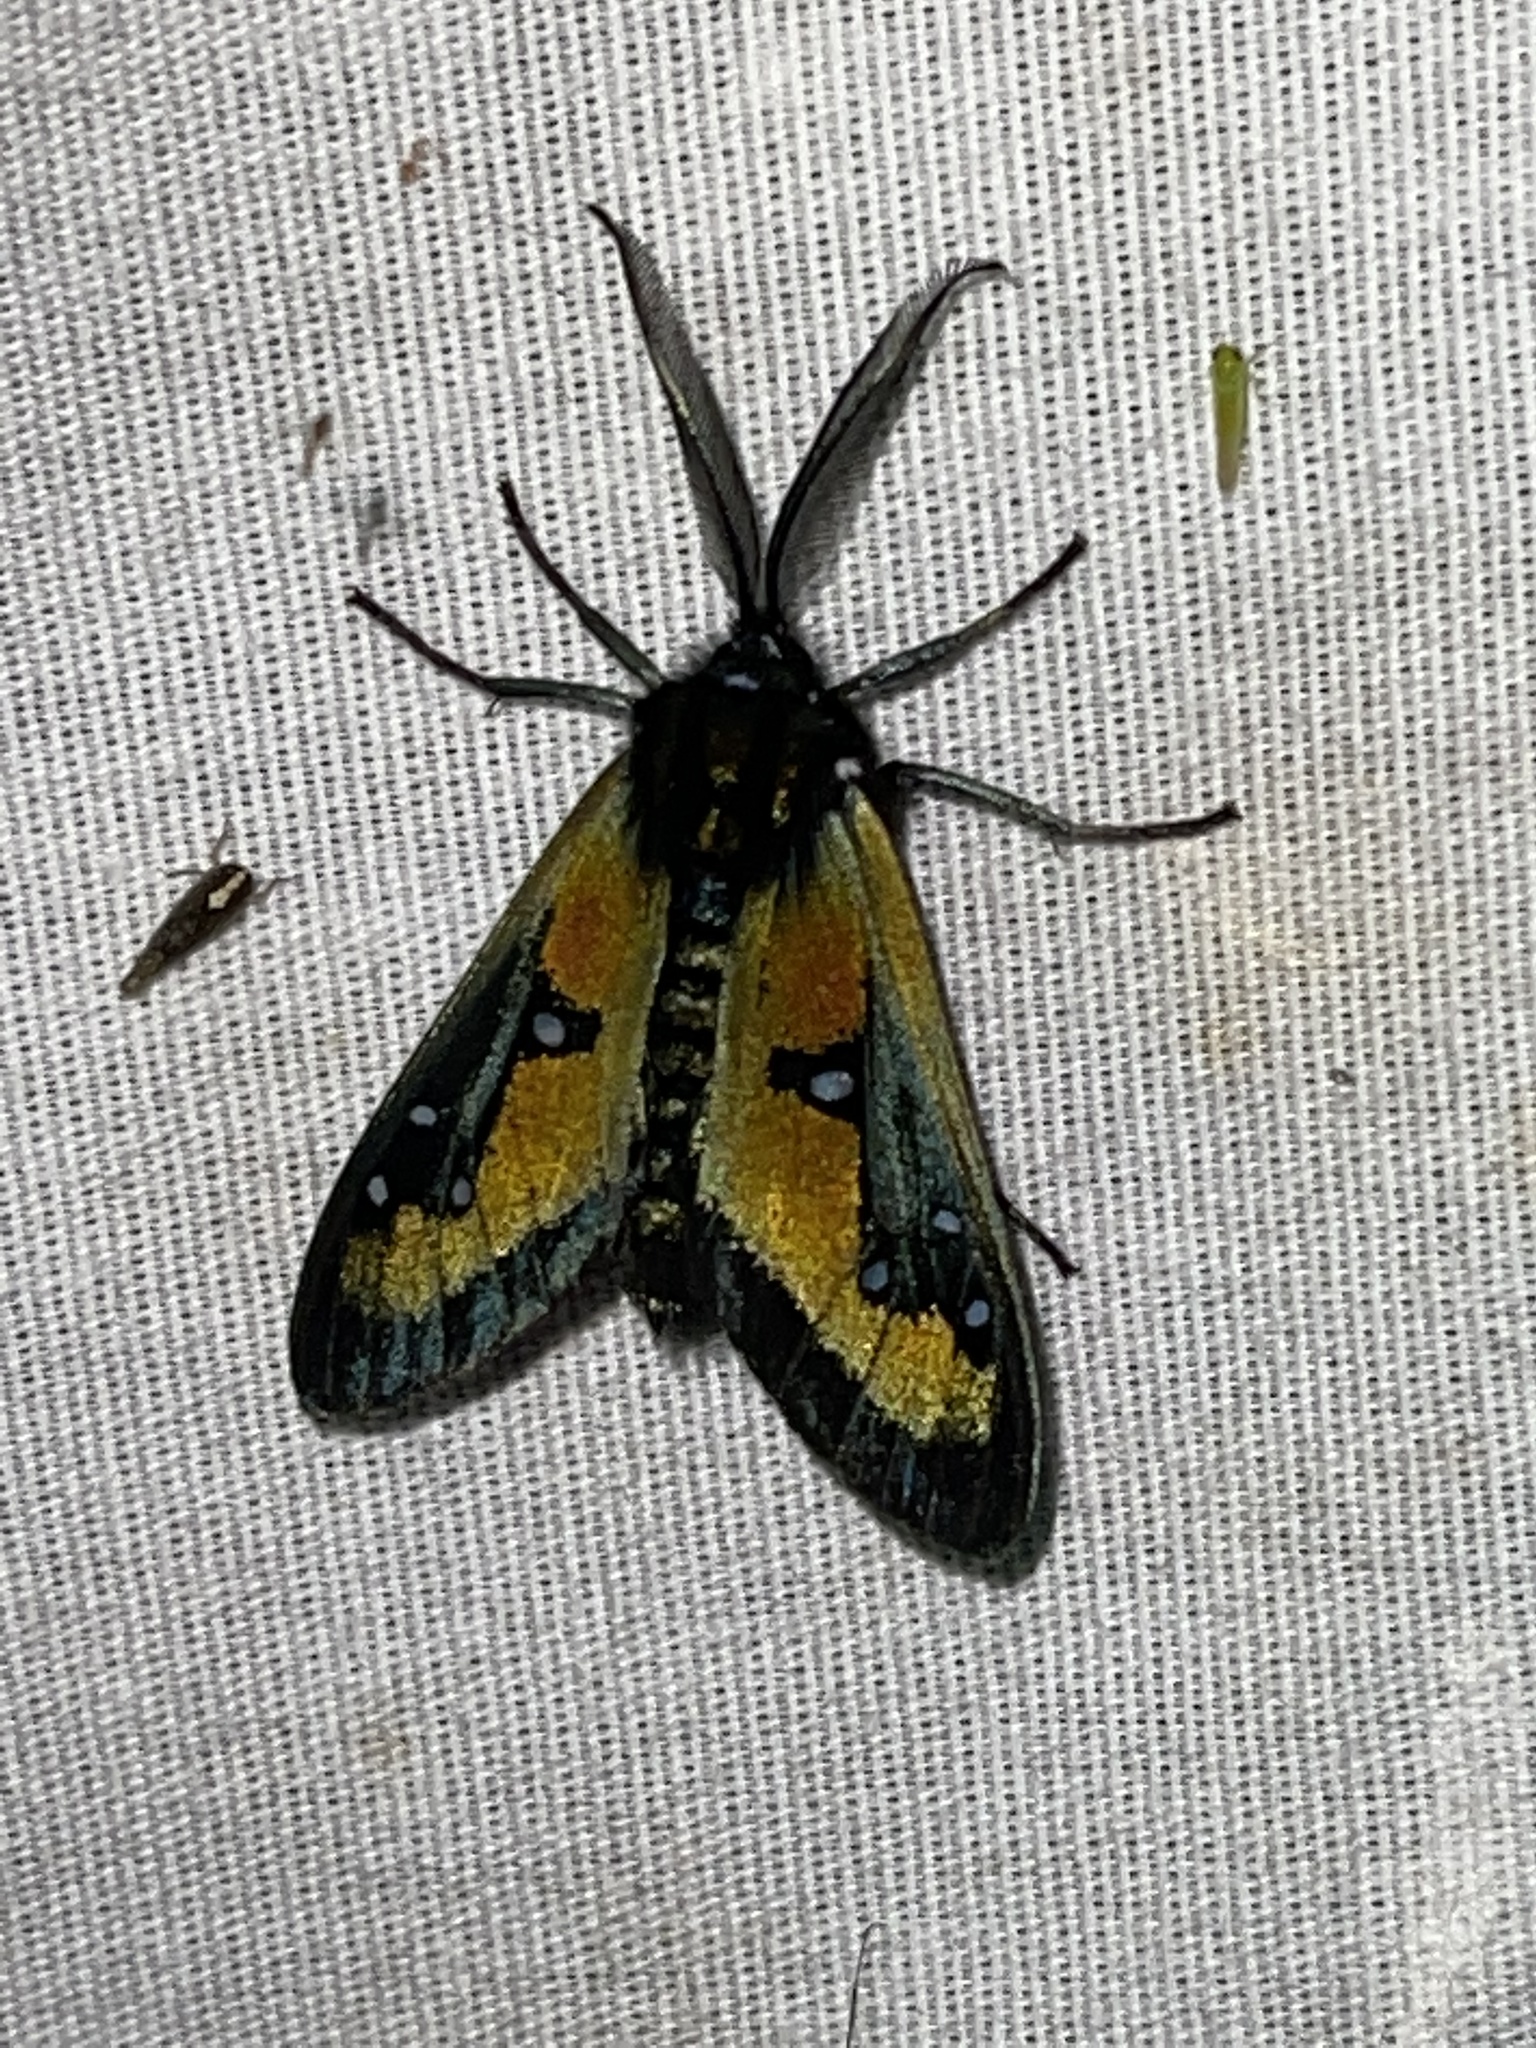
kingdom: Animalia
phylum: Arthropoda
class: Insecta
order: Lepidoptera
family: Erebidae
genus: Chrysocale
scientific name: Chrysocale regalis
